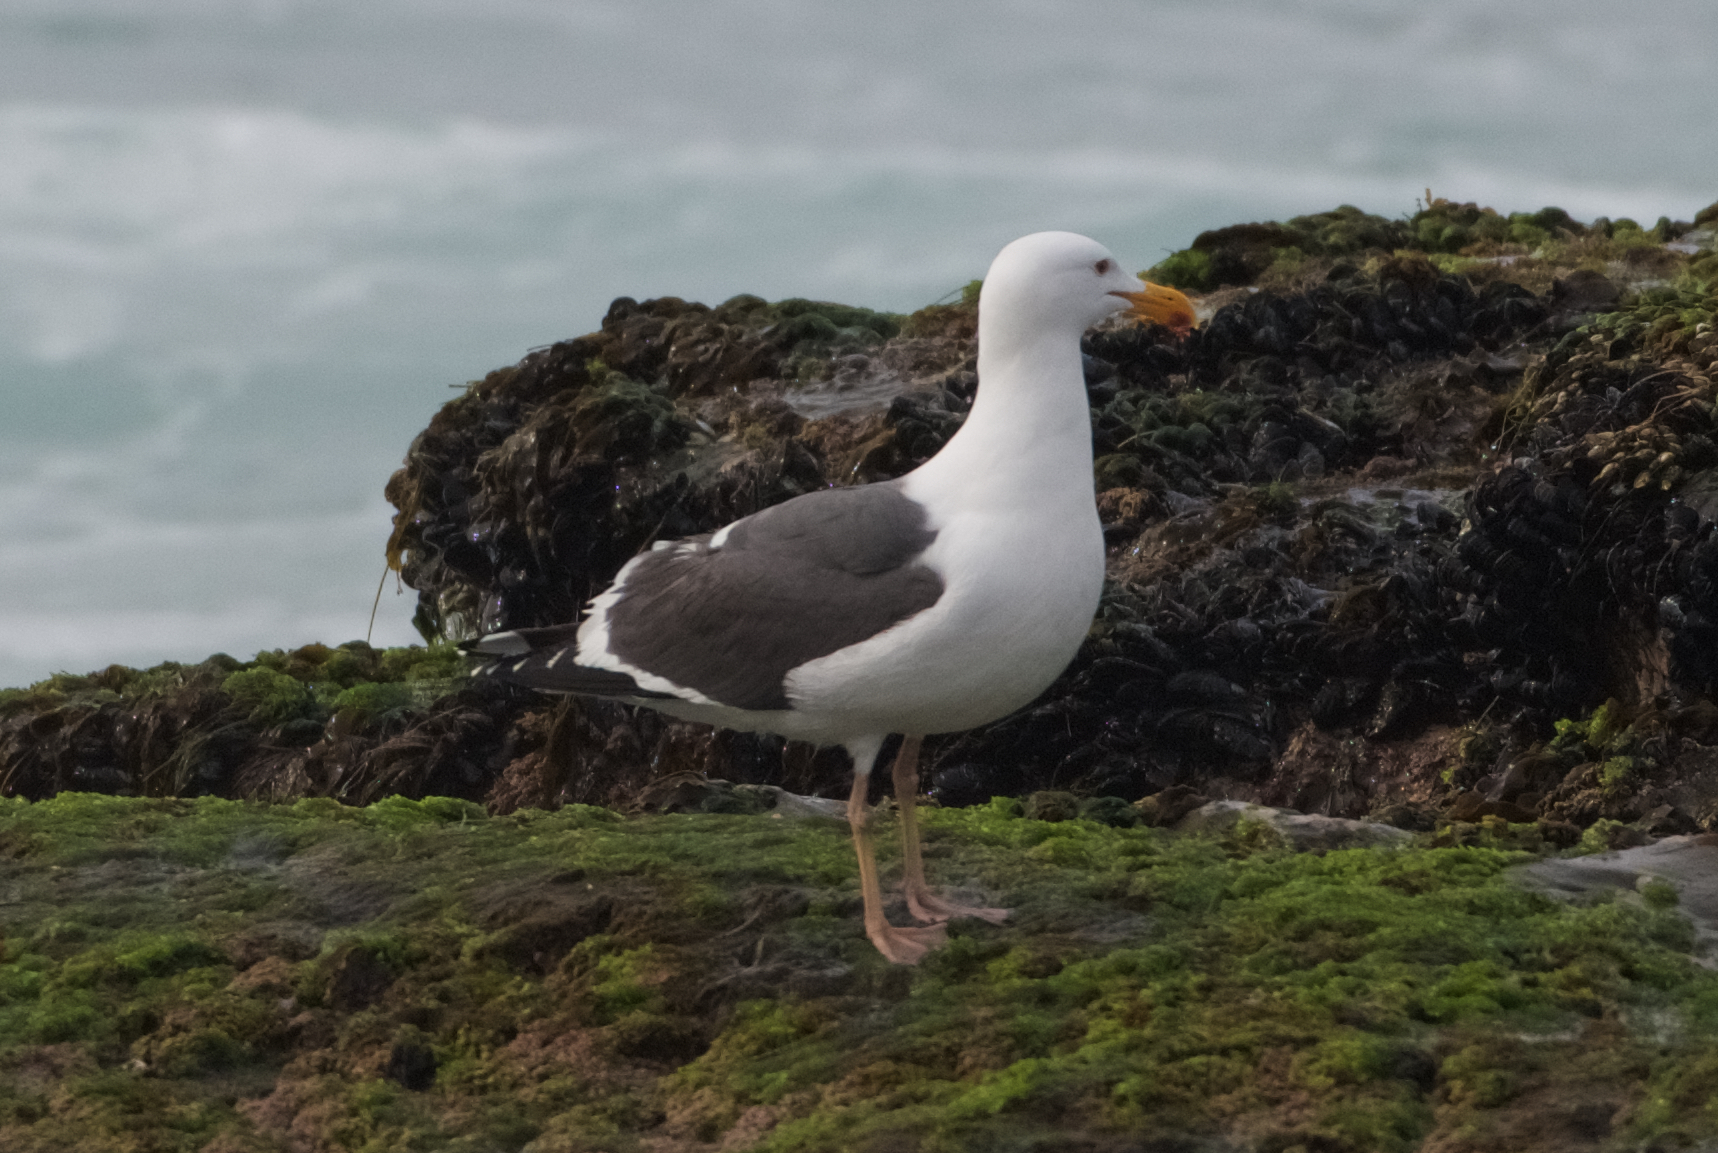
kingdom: Animalia
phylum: Chordata
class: Aves
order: Charadriiformes
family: Laridae
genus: Larus
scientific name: Larus occidentalis
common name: Western gull
